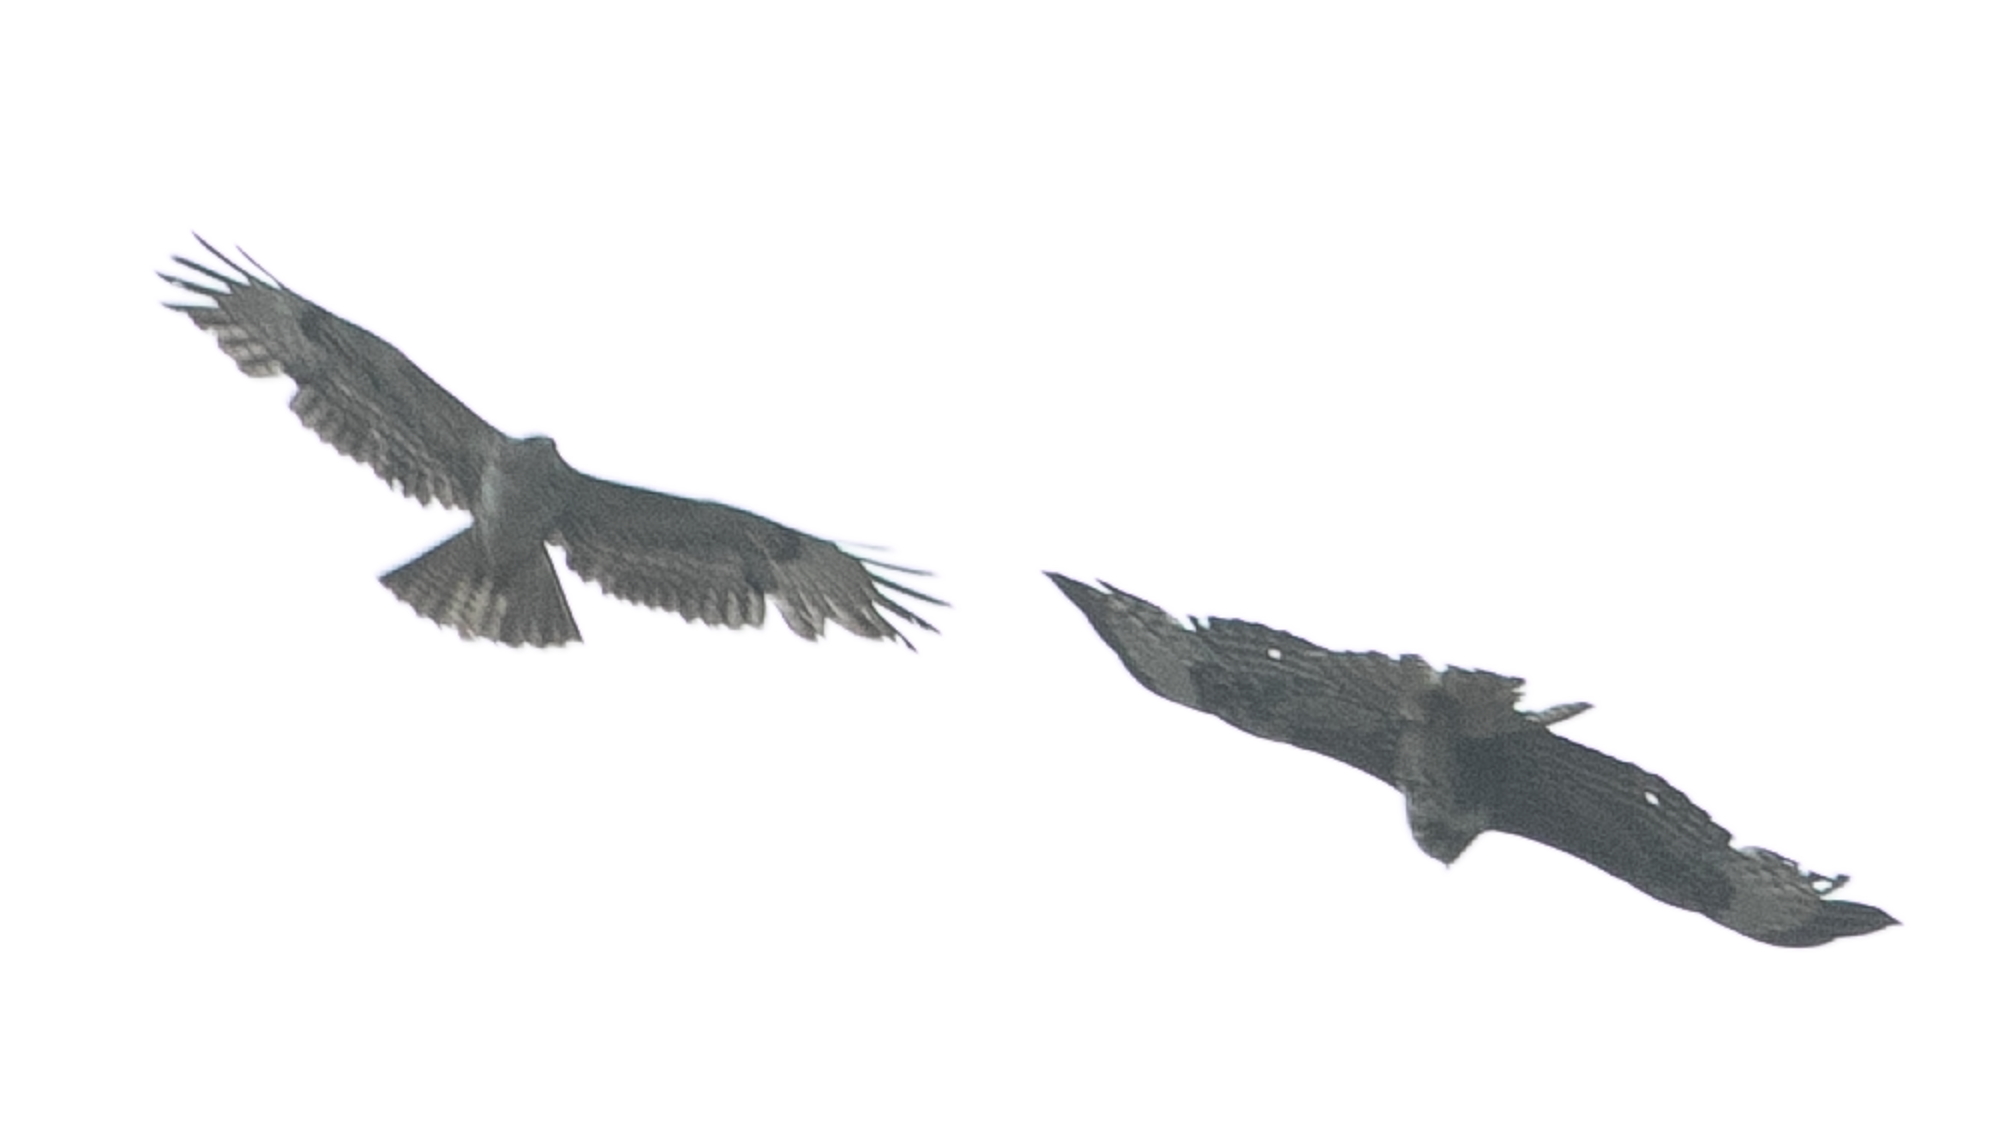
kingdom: Animalia
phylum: Chordata
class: Aves
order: Accipitriformes
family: Accipitridae
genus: Buteo
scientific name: Buteo buteo
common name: Common buzzard
